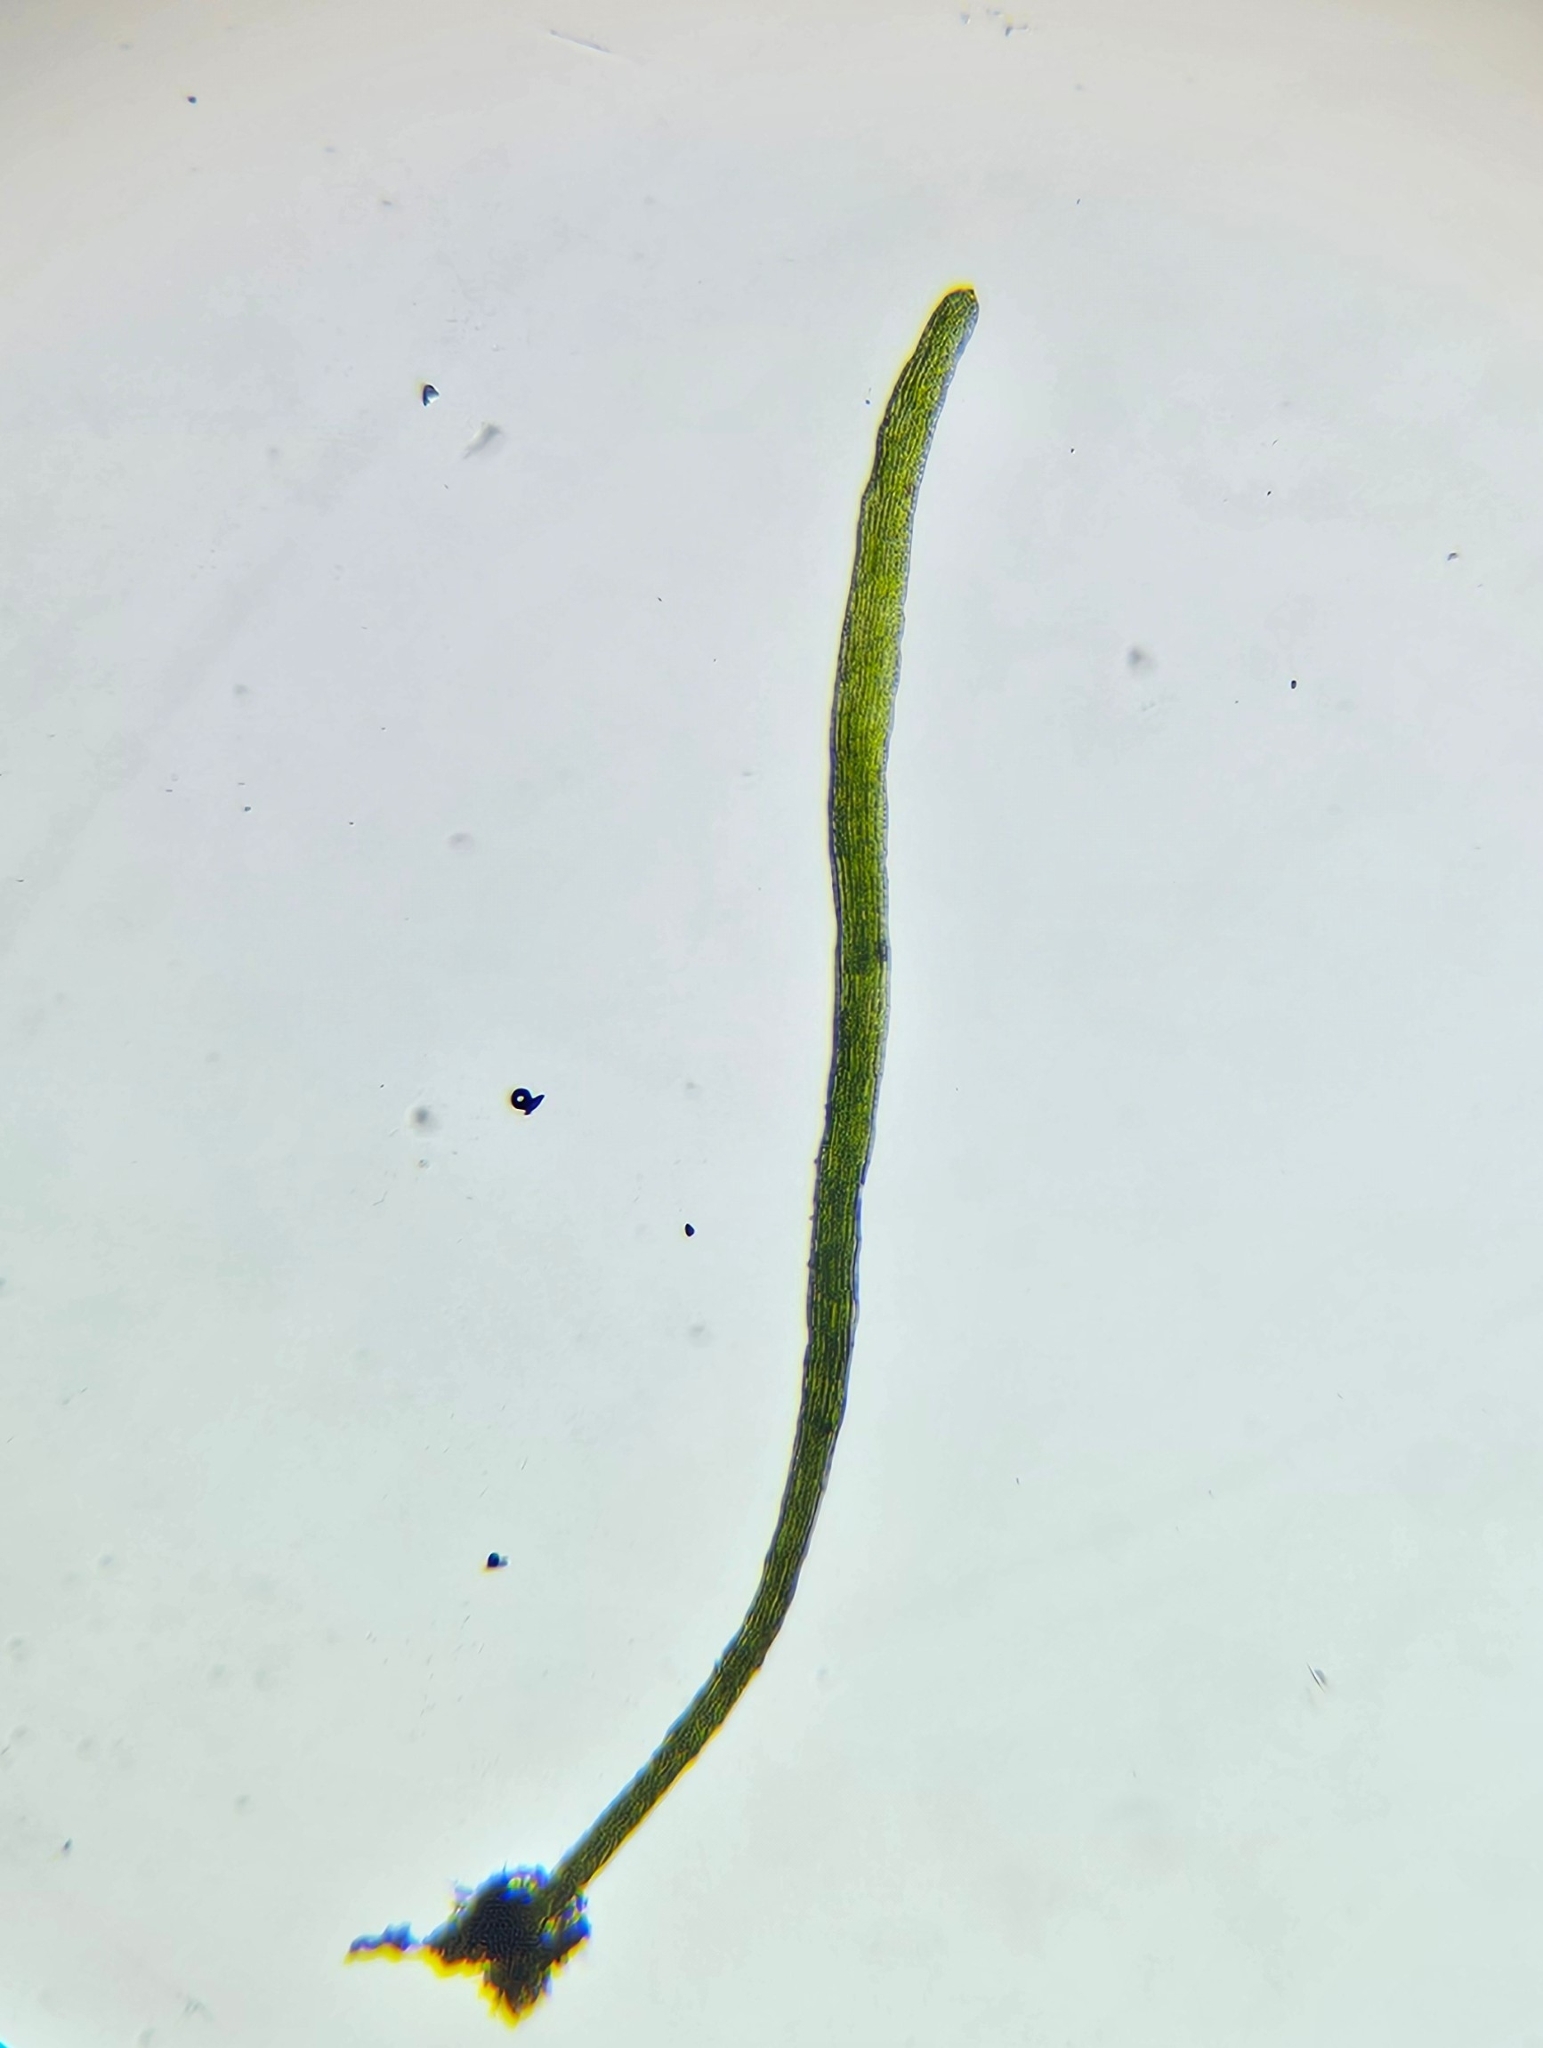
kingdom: Plantae
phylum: Bryophyta
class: Polytrichopsida
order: Tetraphidales
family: Tetraphidaceae
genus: Tetrodontium
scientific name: Tetrodontium brownianum
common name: Brown's four-toothed moss
